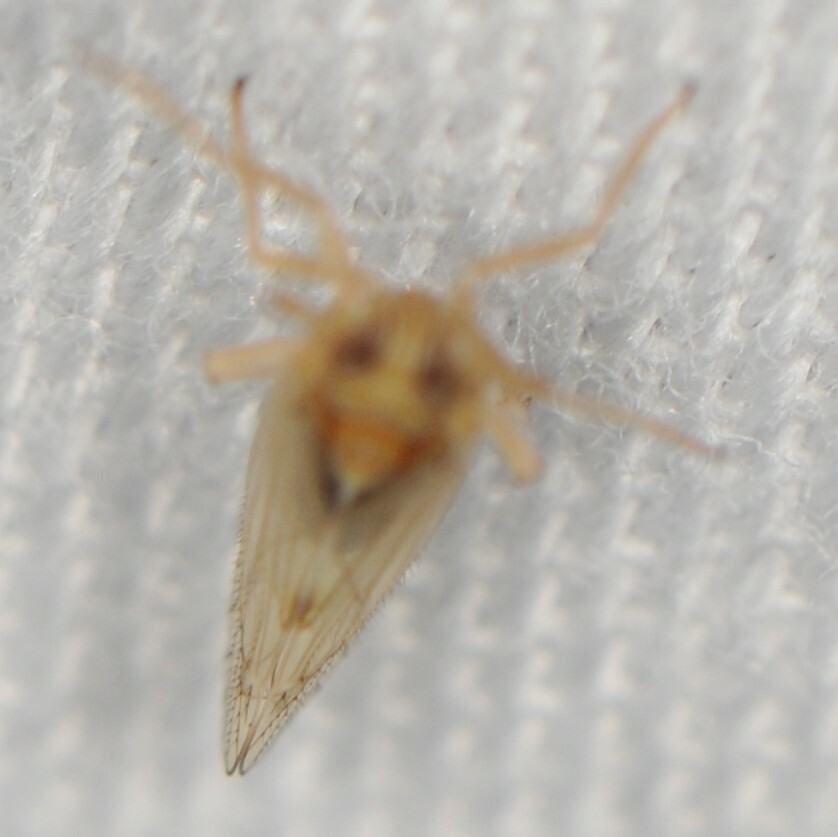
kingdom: Animalia
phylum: Arthropoda
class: Insecta
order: Hemiptera
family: Delphacidae
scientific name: Delphacidae
